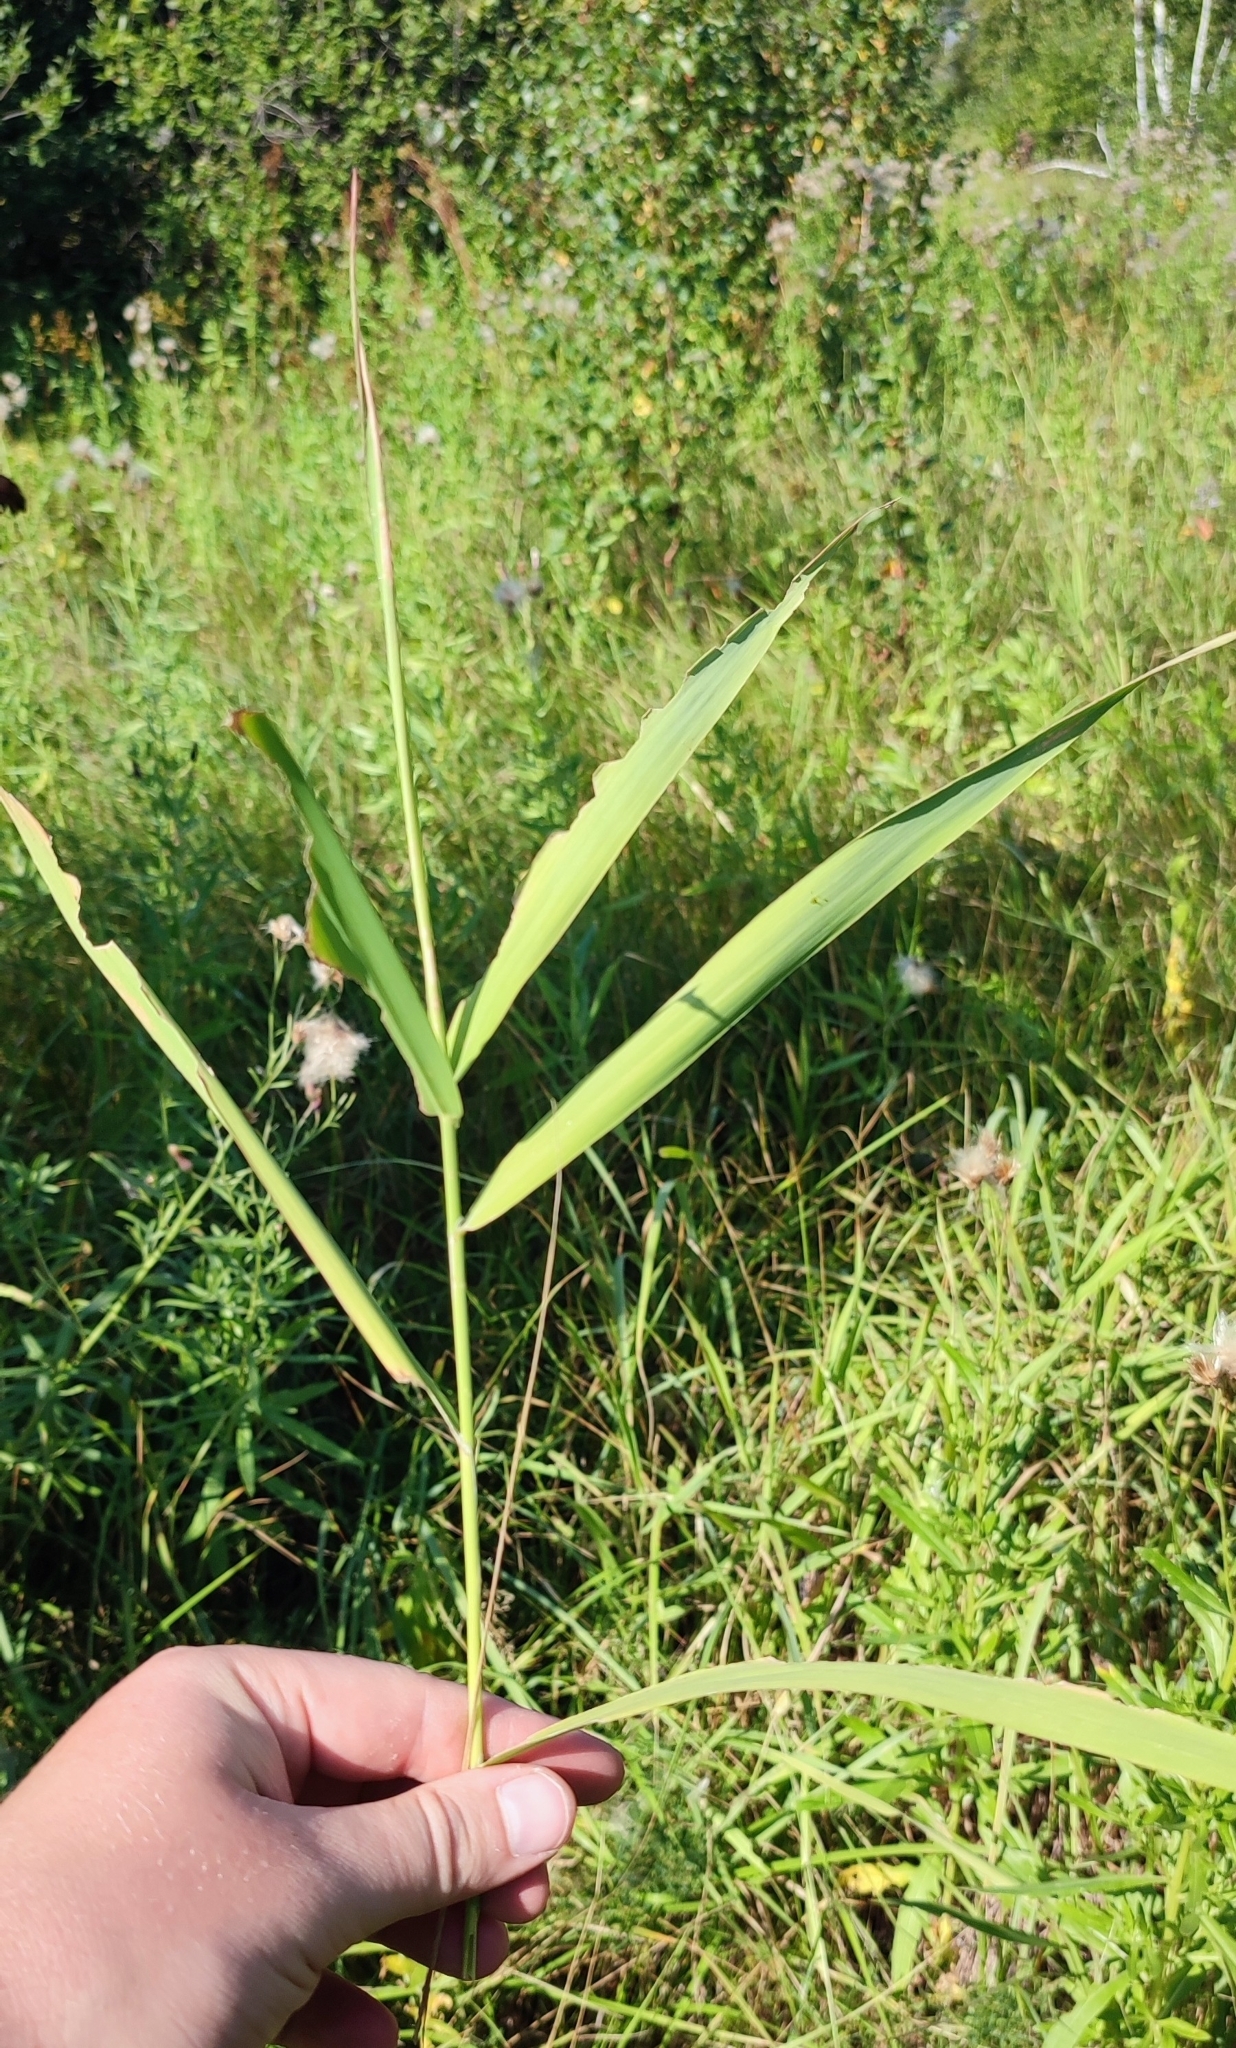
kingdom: Plantae
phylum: Tracheophyta
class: Liliopsida
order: Poales
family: Poaceae
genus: Phragmites
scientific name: Phragmites australis
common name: Common reed
